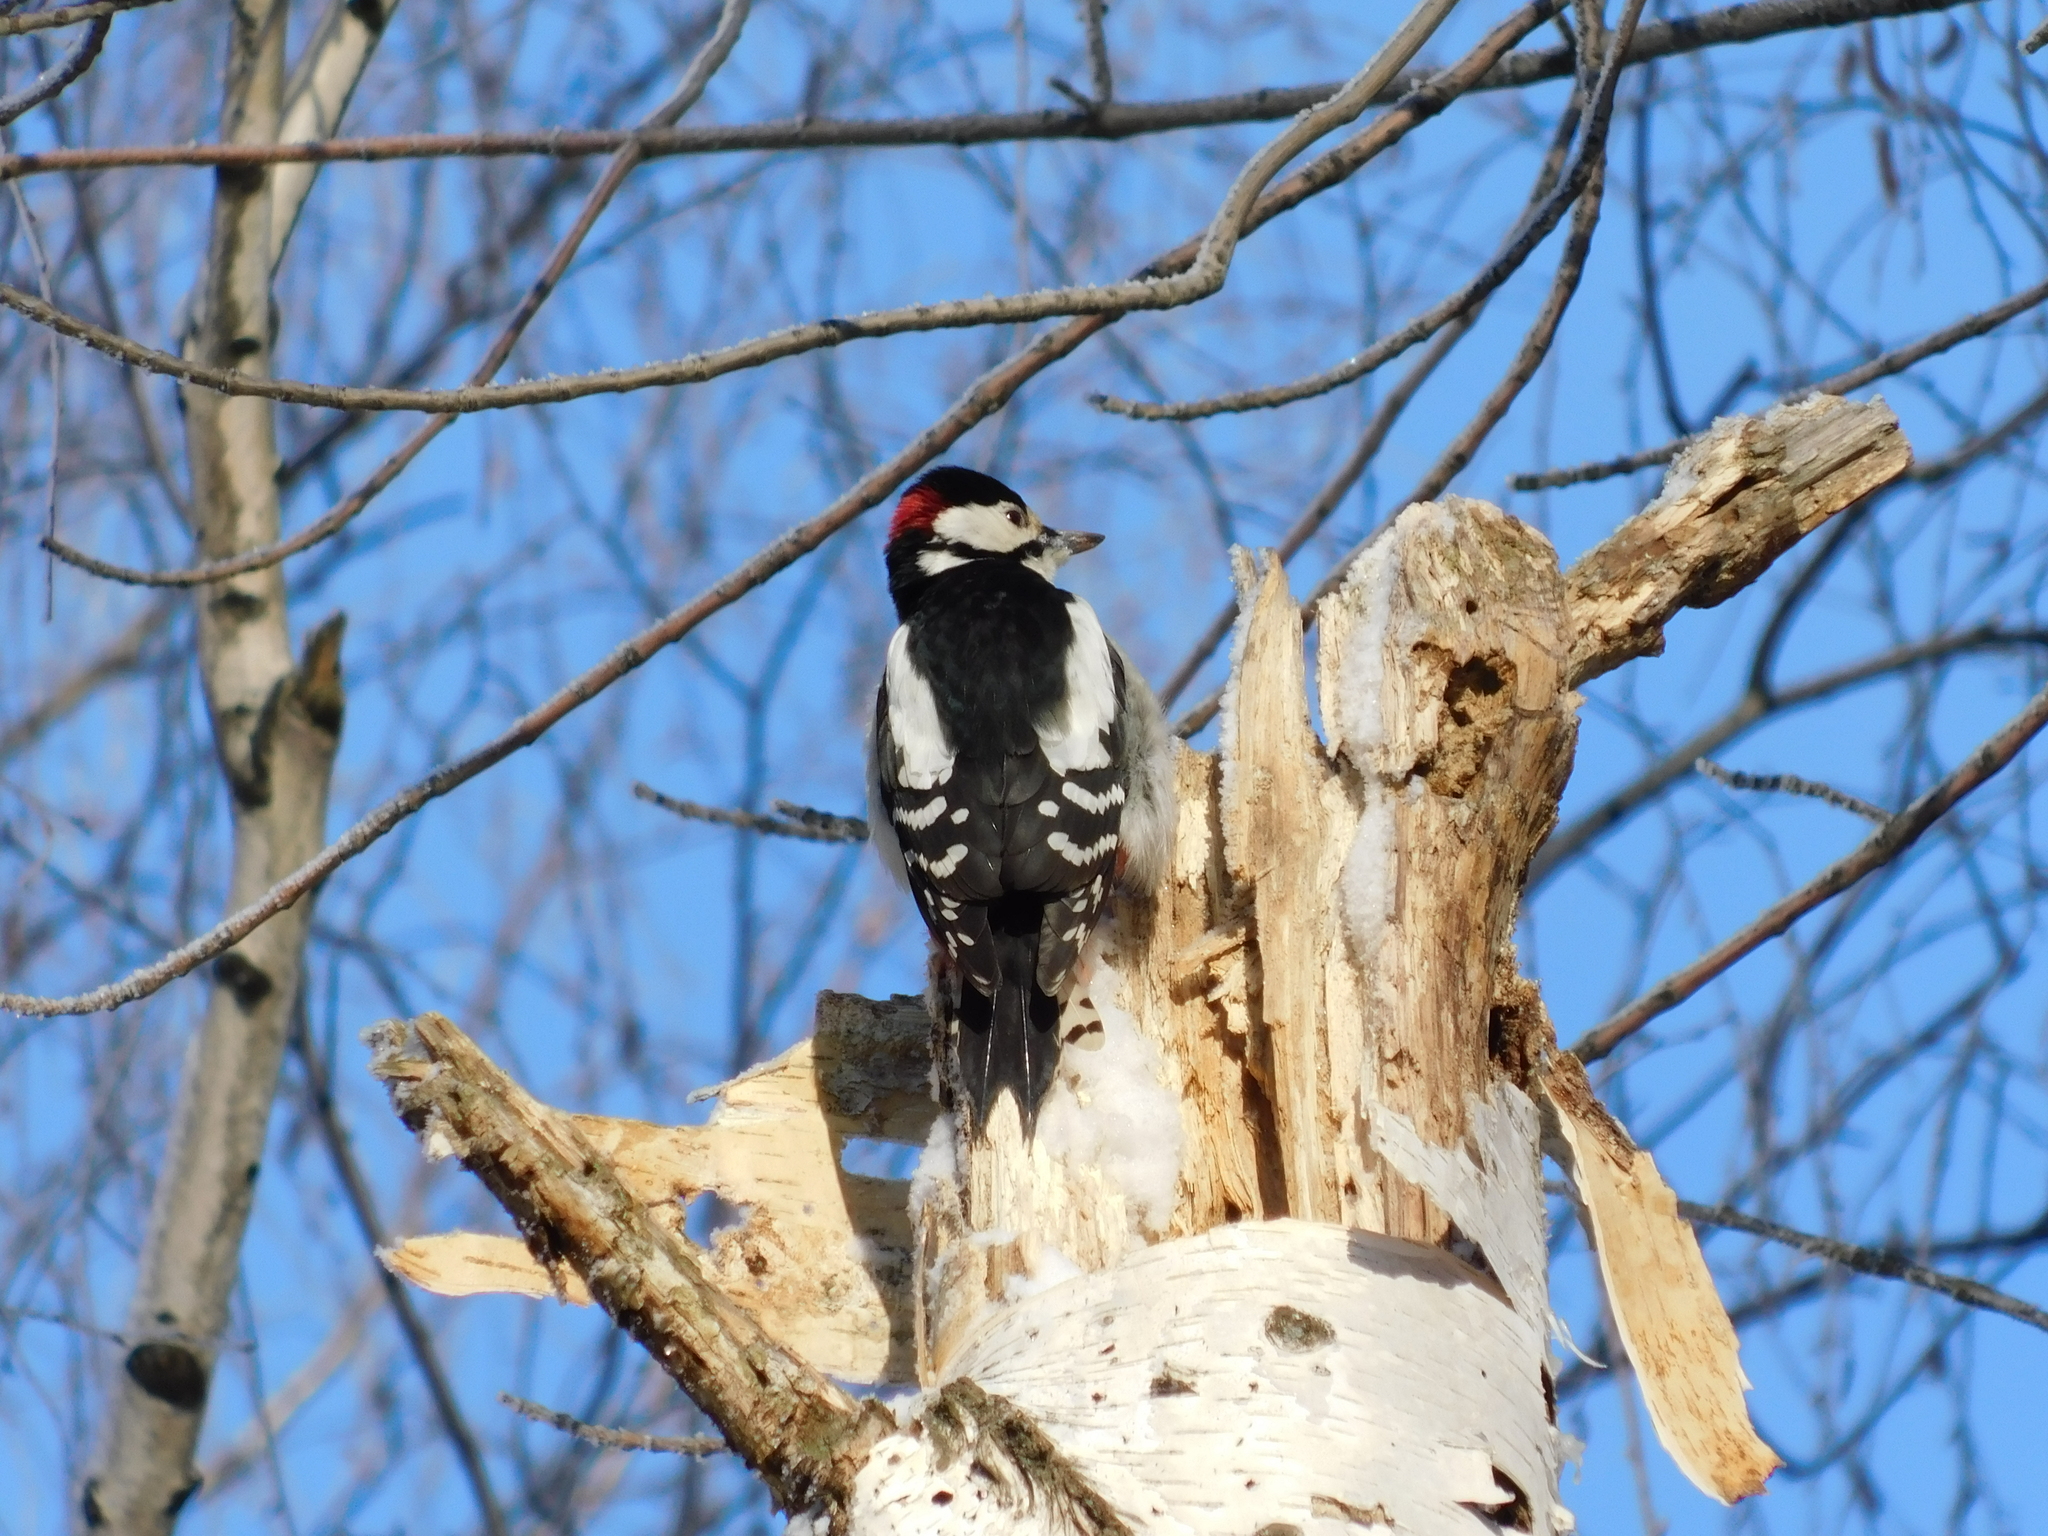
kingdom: Animalia
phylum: Chordata
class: Aves
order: Piciformes
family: Picidae
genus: Dendrocopos
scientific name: Dendrocopos major
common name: Great spotted woodpecker
